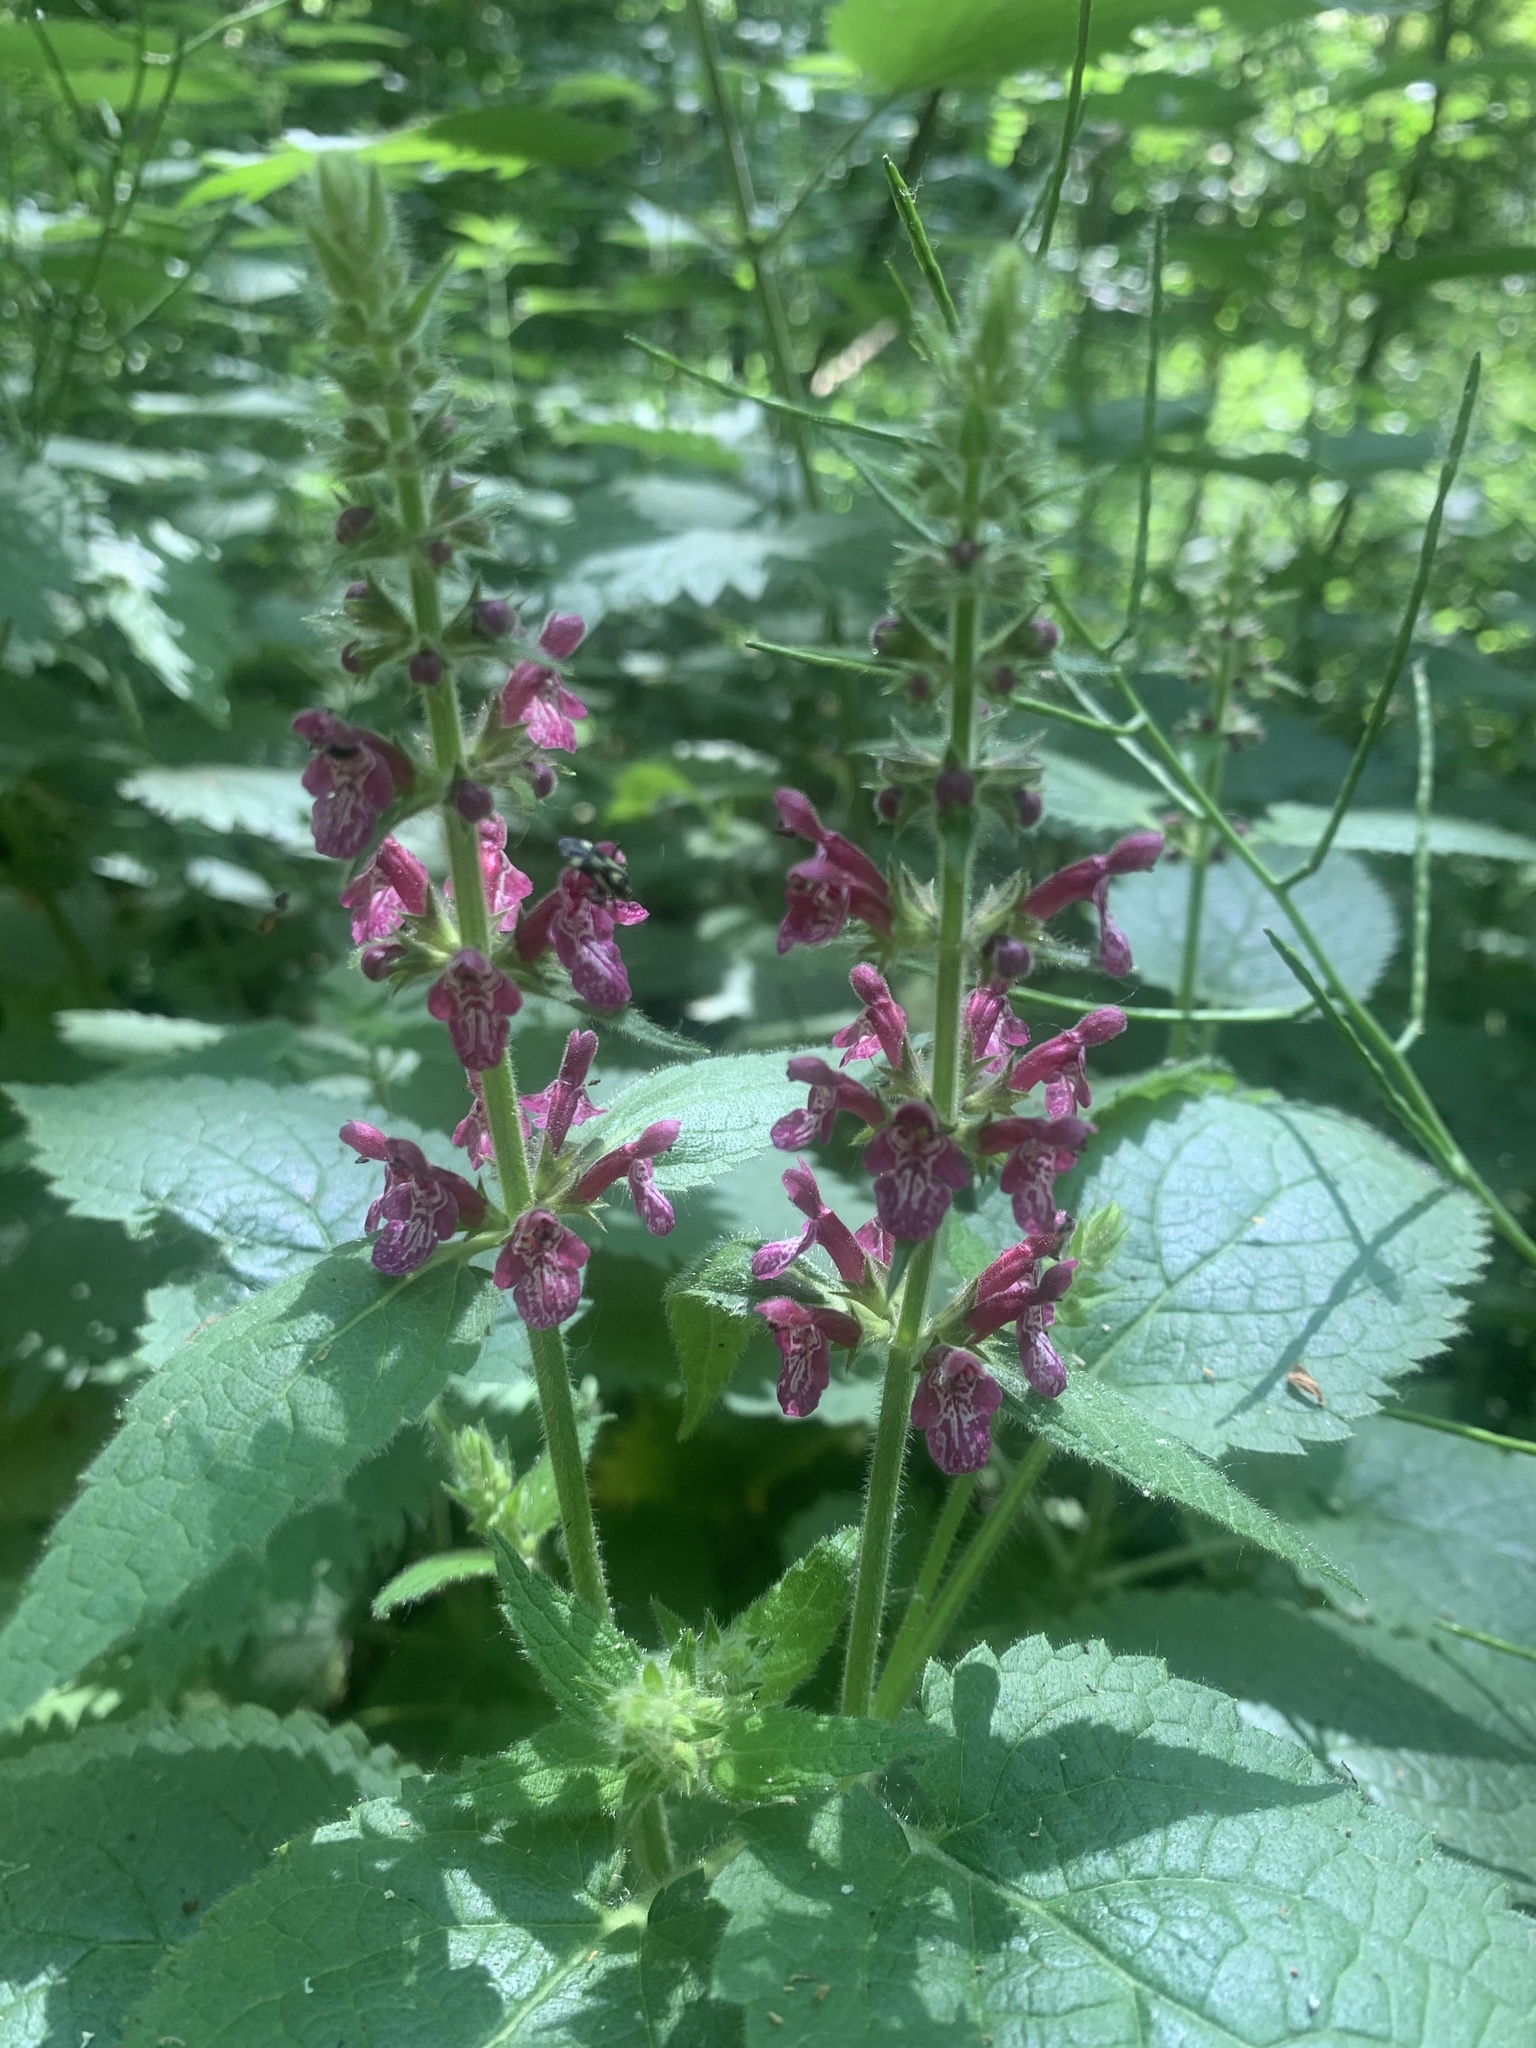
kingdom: Plantae
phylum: Tracheophyta
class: Magnoliopsida
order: Lamiales
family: Lamiaceae
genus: Stachys
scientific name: Stachys sylvatica
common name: Hedge woundwort
